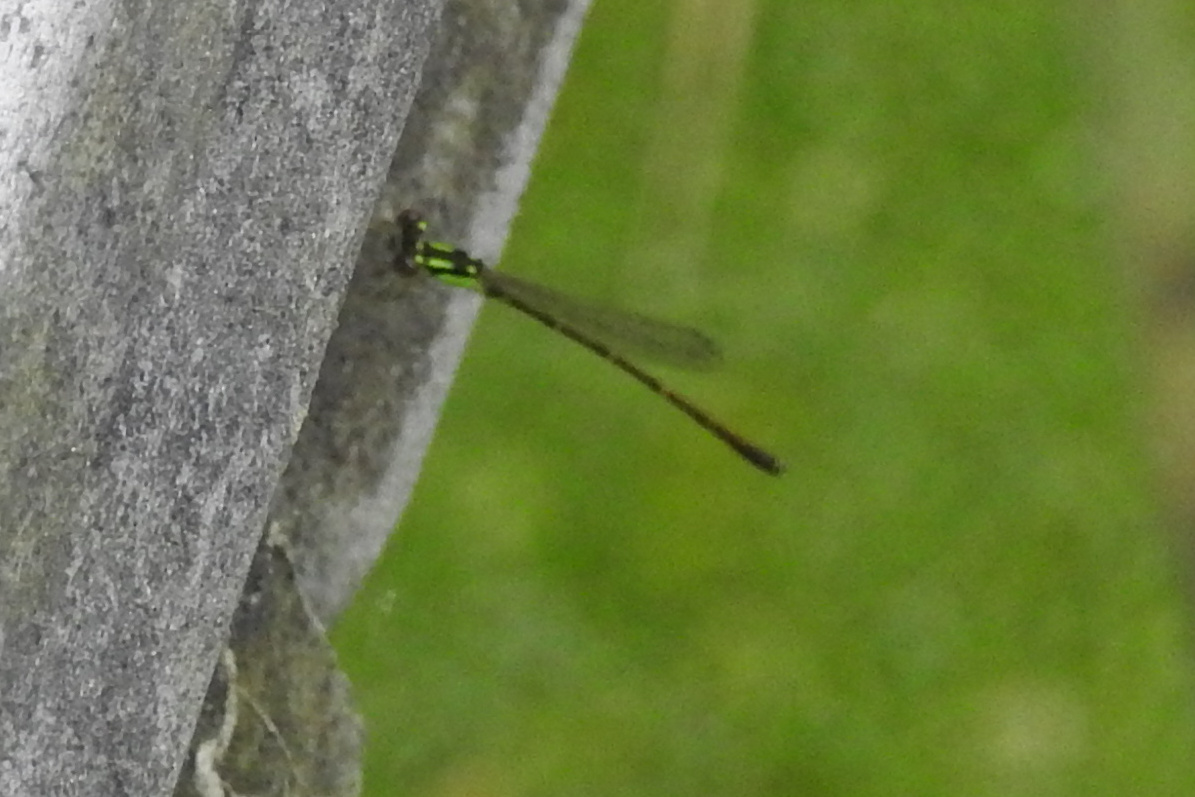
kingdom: Animalia
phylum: Arthropoda
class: Insecta
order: Odonata
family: Coenagrionidae
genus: Ischnura
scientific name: Ischnura posita
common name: Fragile forktail
